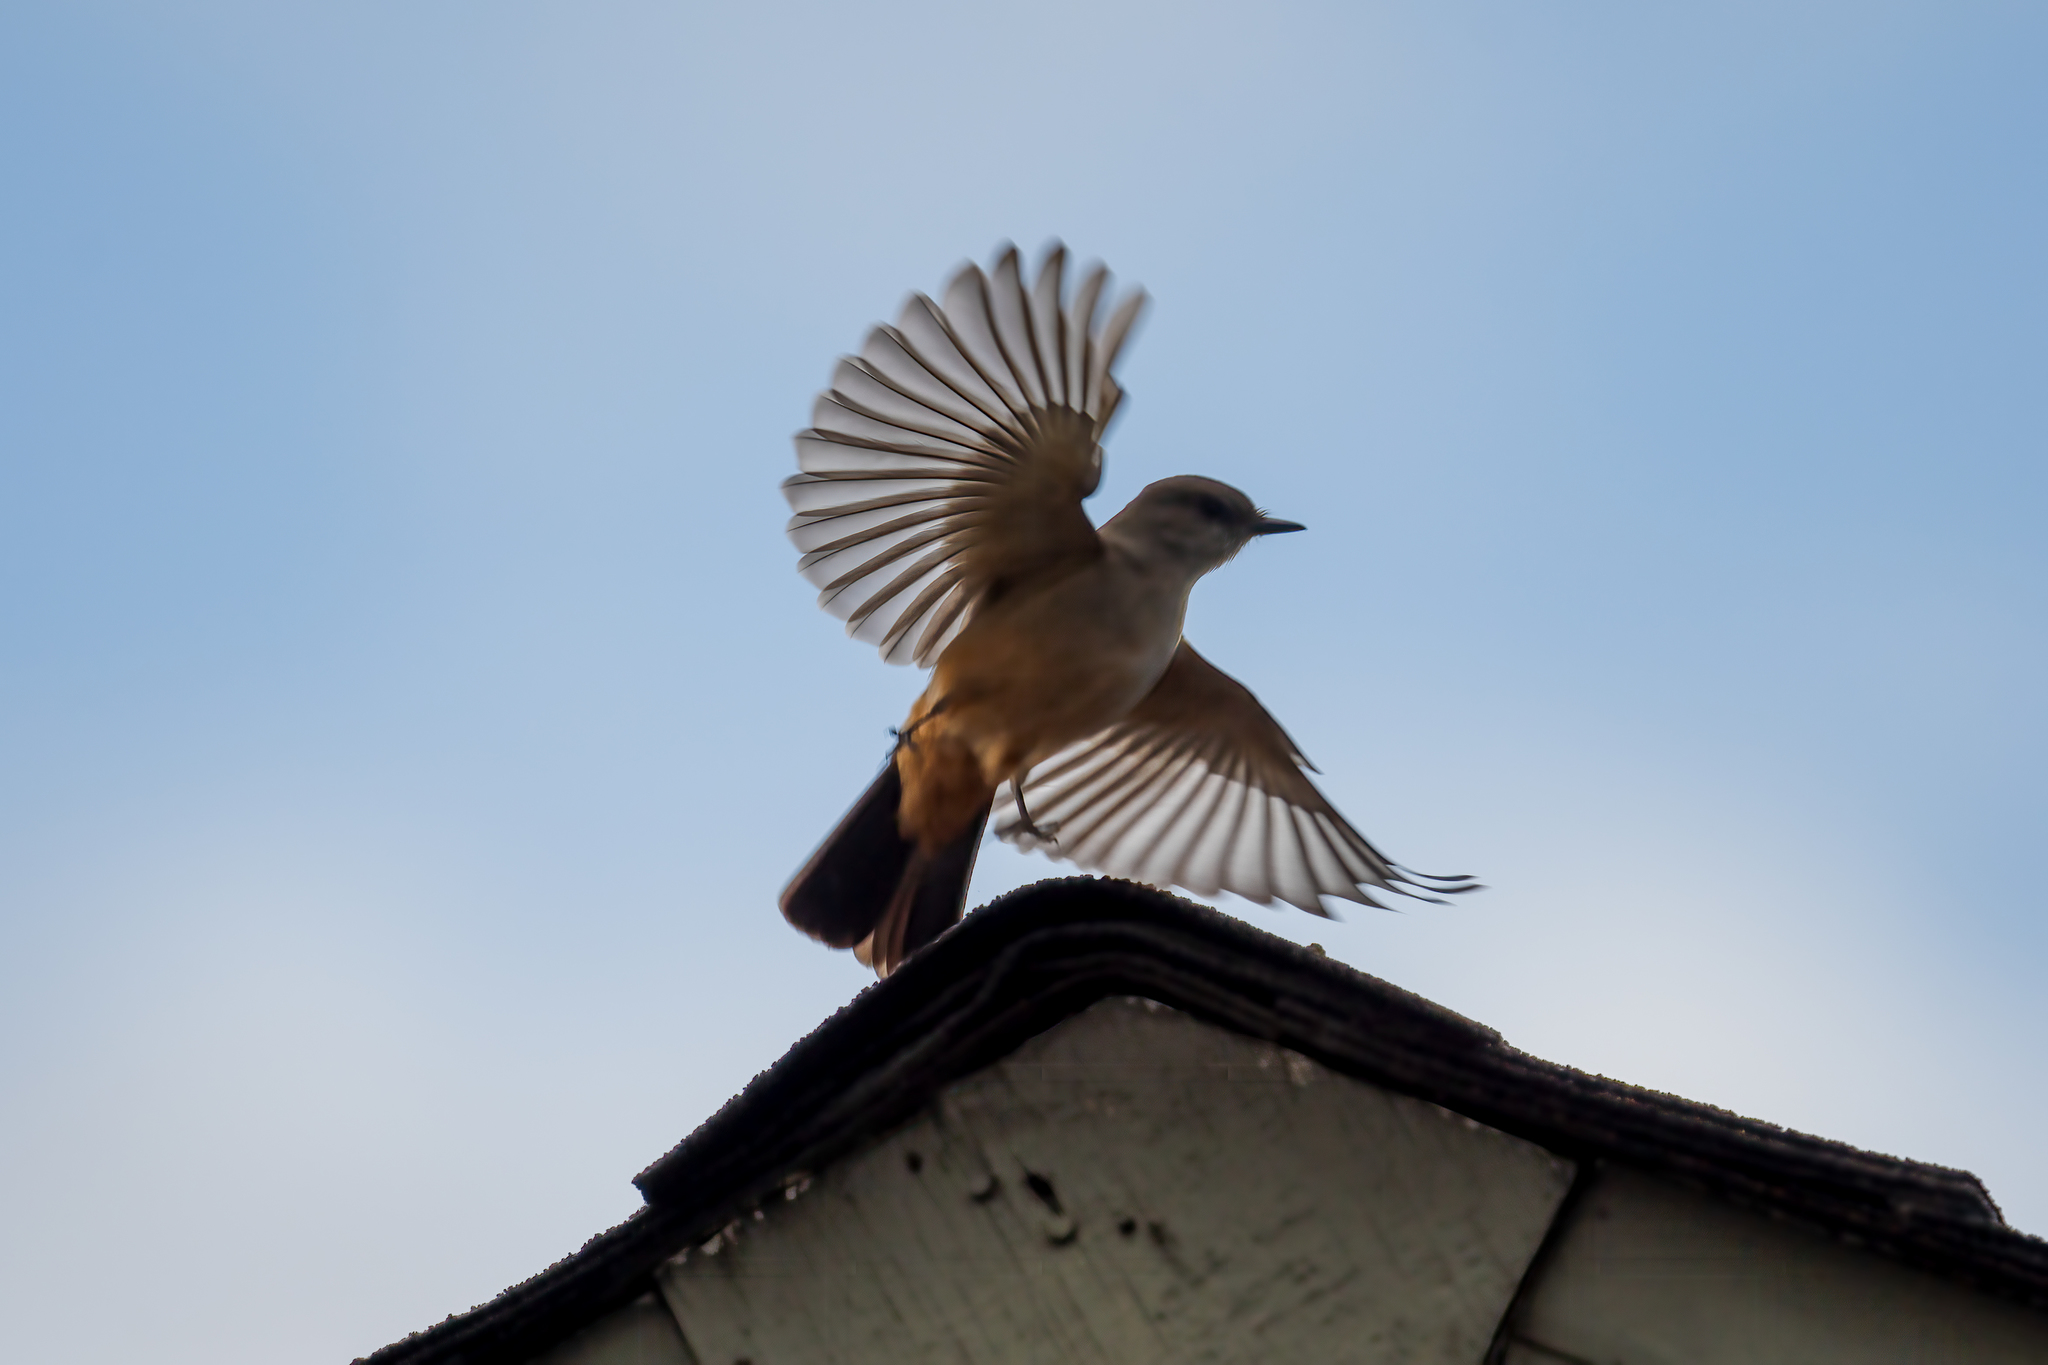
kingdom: Animalia
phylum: Chordata
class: Aves
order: Passeriformes
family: Tyrannidae
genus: Sayornis
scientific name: Sayornis saya
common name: Say's phoebe
